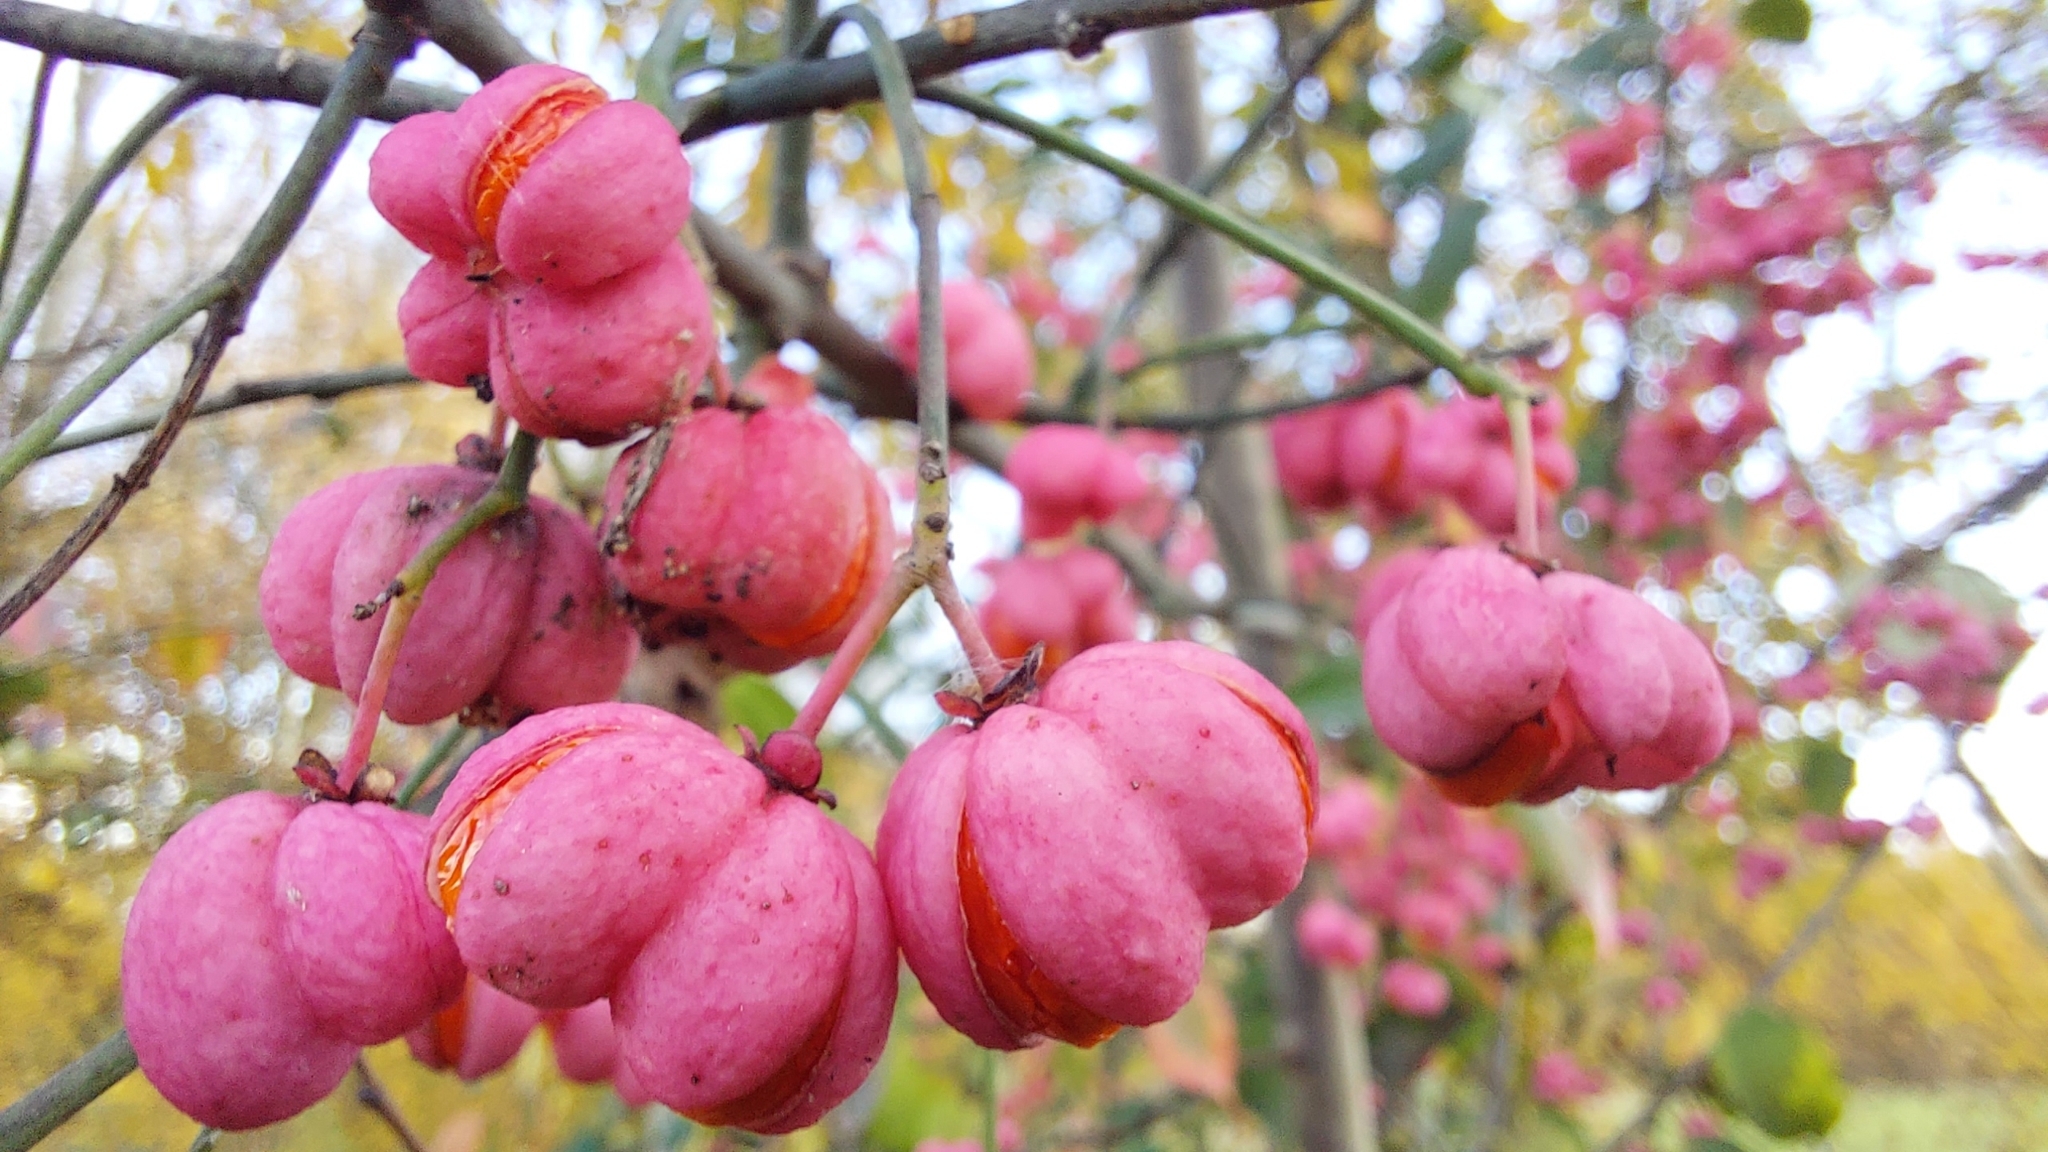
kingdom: Plantae
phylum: Tracheophyta
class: Magnoliopsida
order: Celastrales
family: Celastraceae
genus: Euonymus
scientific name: Euonymus europaeus
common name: Spindle
